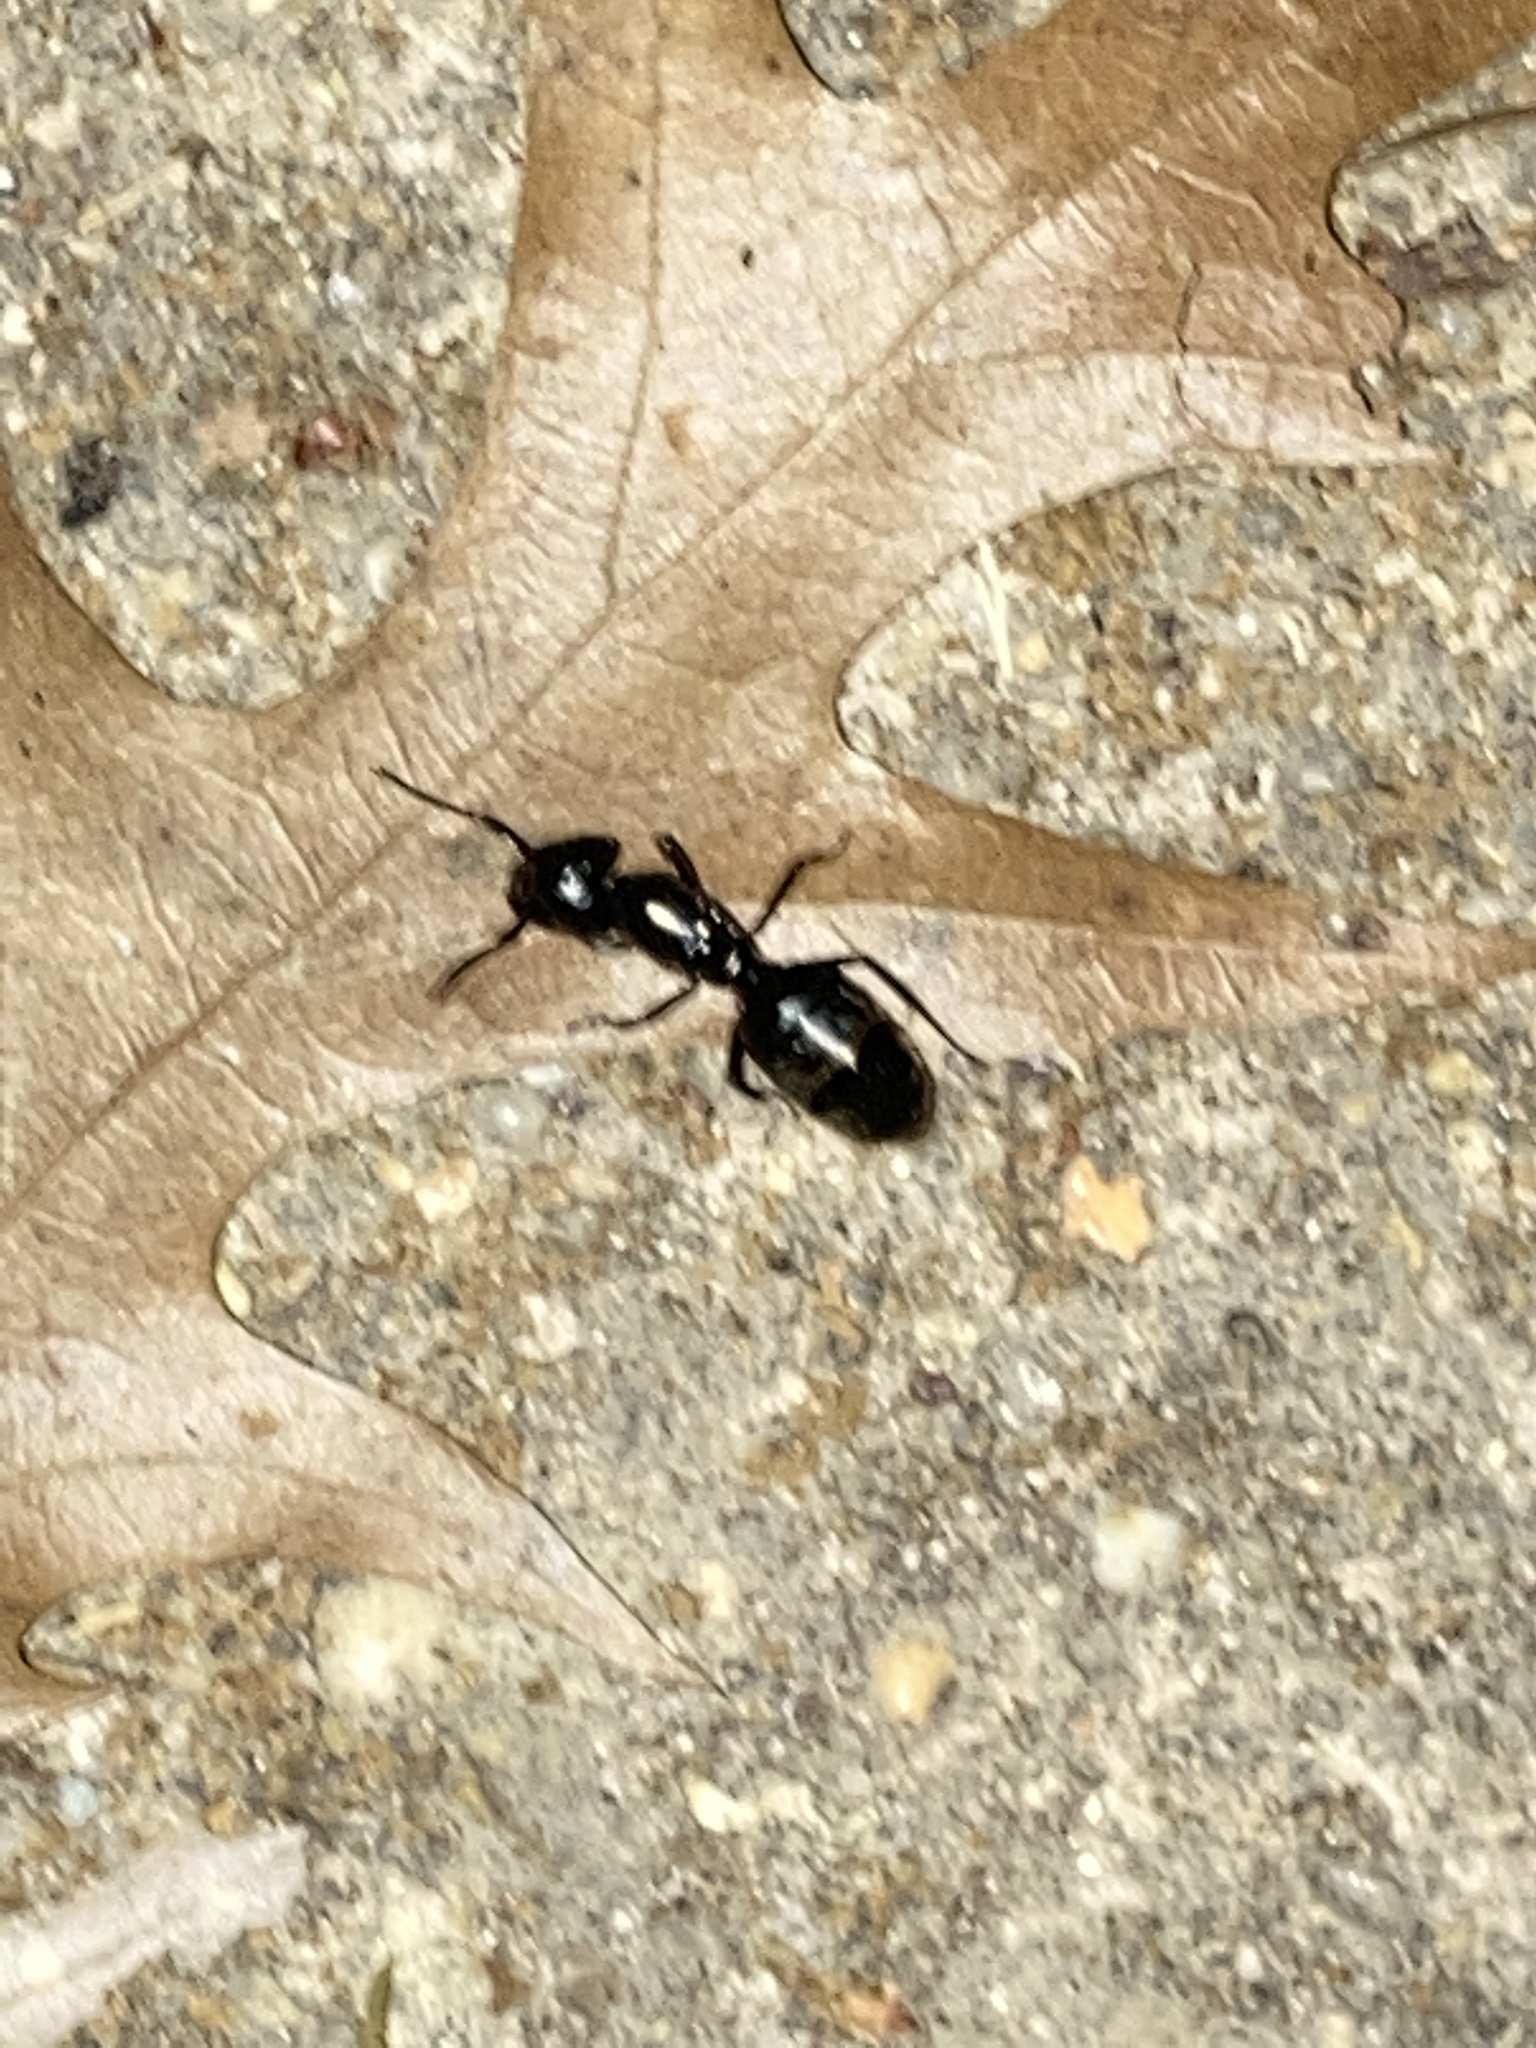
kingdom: Animalia
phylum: Arthropoda
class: Insecta
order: Hymenoptera
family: Formicidae
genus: Camponotus
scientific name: Camponotus pennsylvanicus
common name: Black carpenter ant
